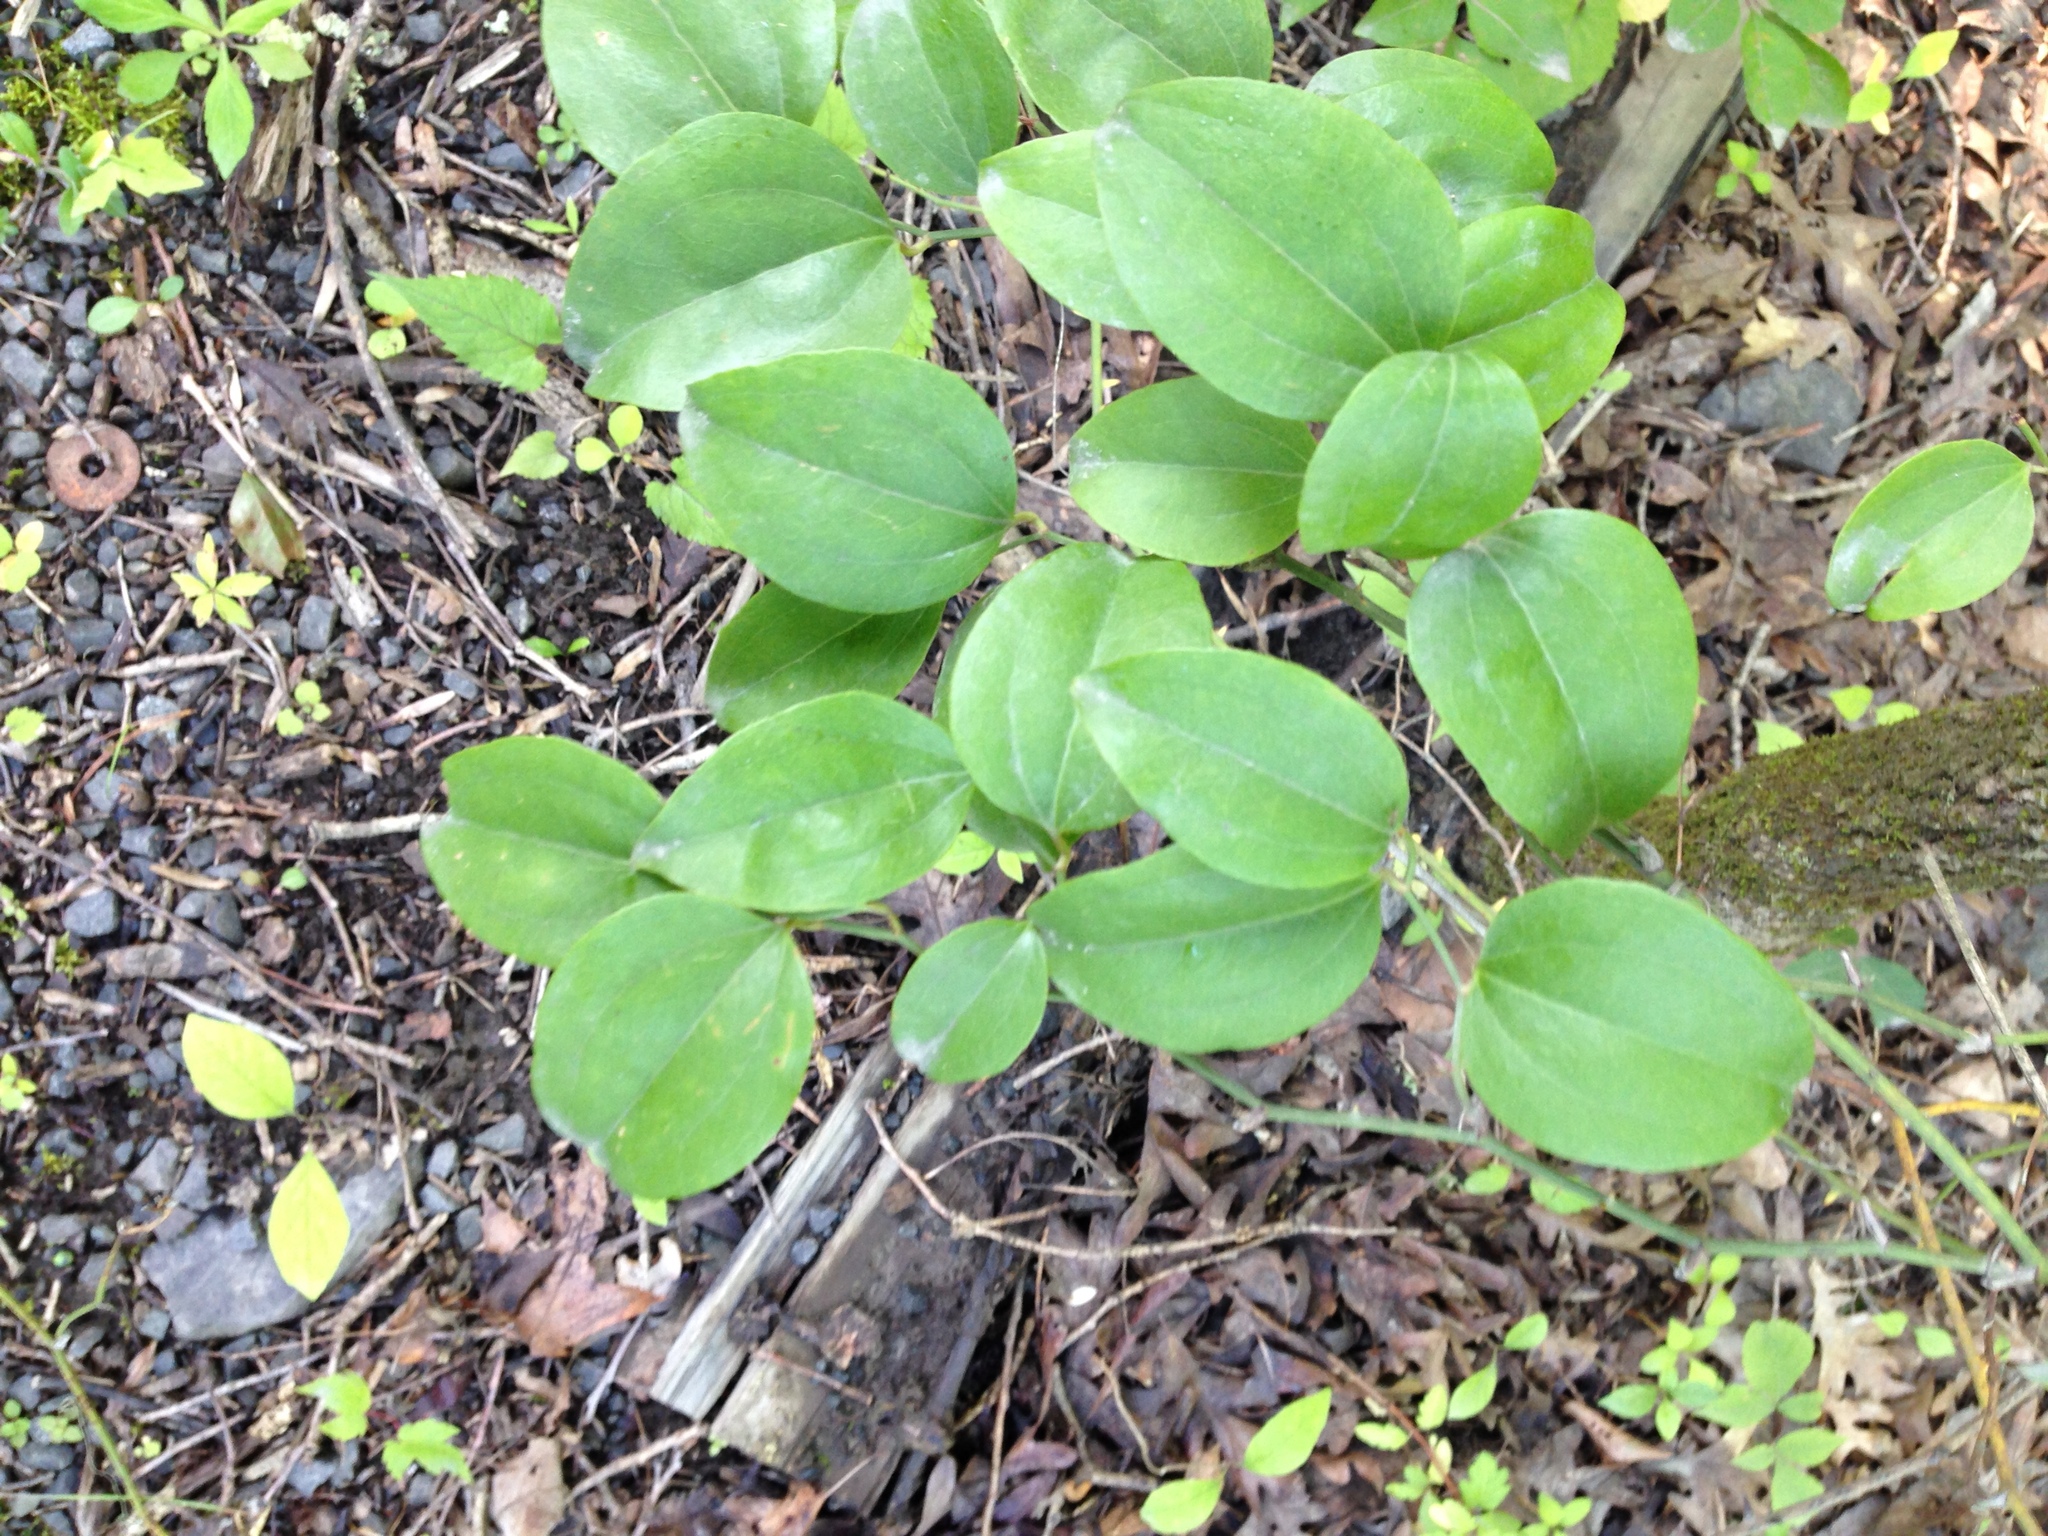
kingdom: Plantae
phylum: Tracheophyta
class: Liliopsida
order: Liliales
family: Smilacaceae
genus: Smilax
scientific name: Smilax rotundifolia
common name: Bullbriar
